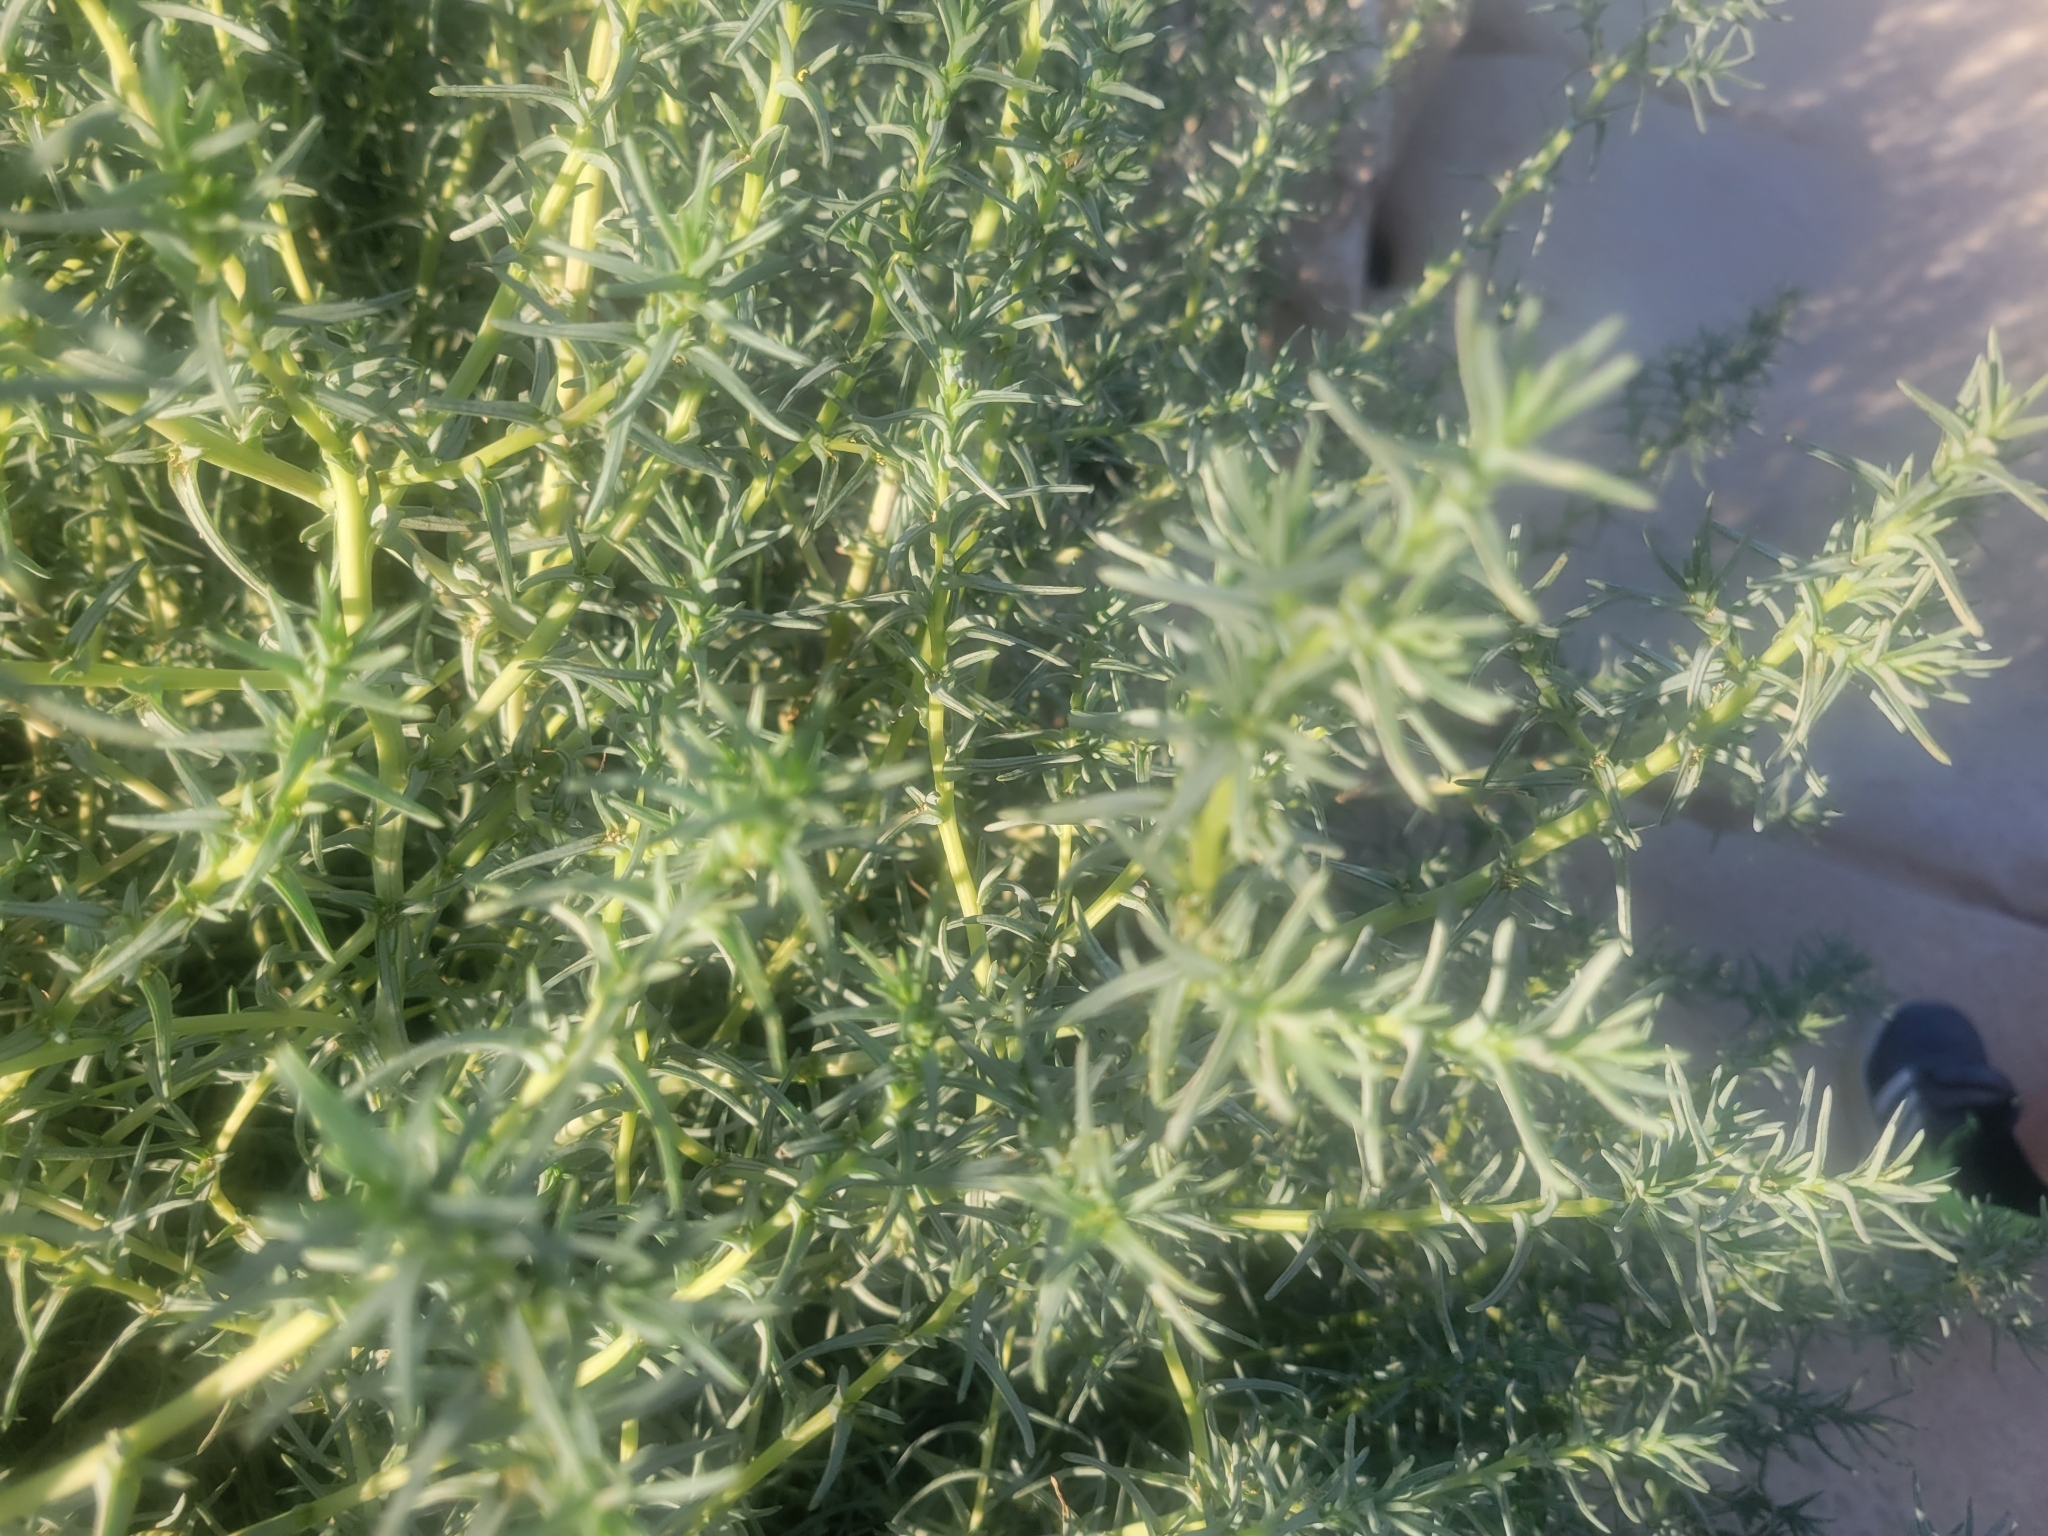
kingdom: Plantae
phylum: Tracheophyta
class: Magnoliopsida
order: Caryophyllales
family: Amaranthaceae
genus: Salsola
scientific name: Salsola soda
